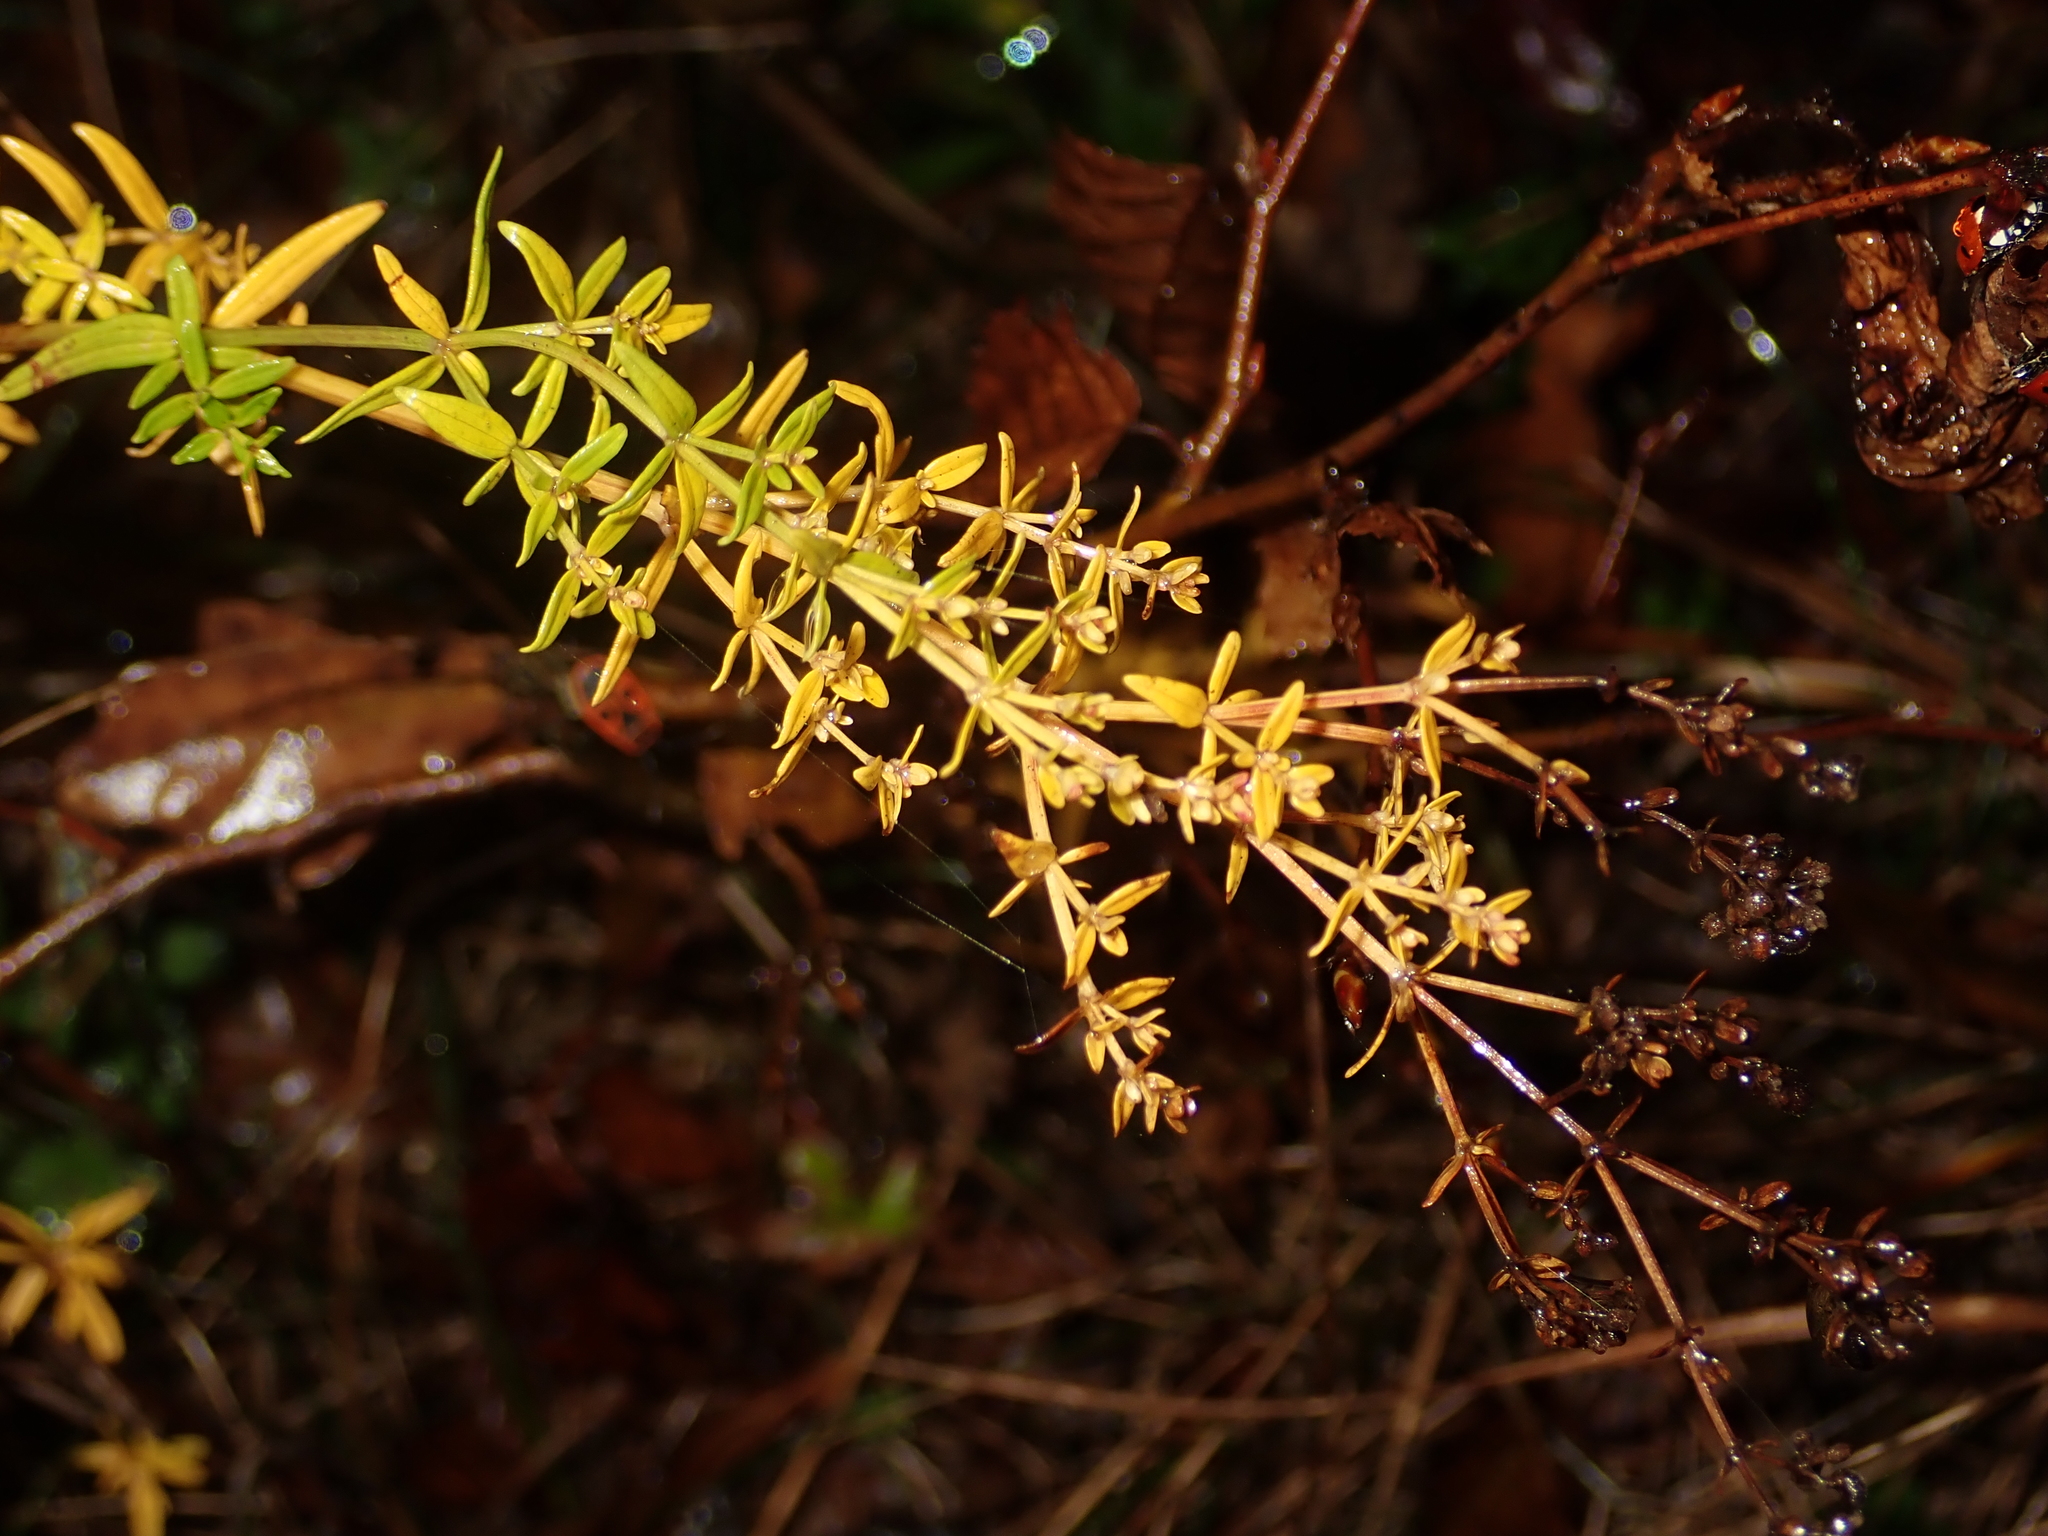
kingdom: Plantae
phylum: Tracheophyta
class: Magnoliopsida
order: Gentianales
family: Rubiaceae
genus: Galium
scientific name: Galium boreale
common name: Northern bedstraw
